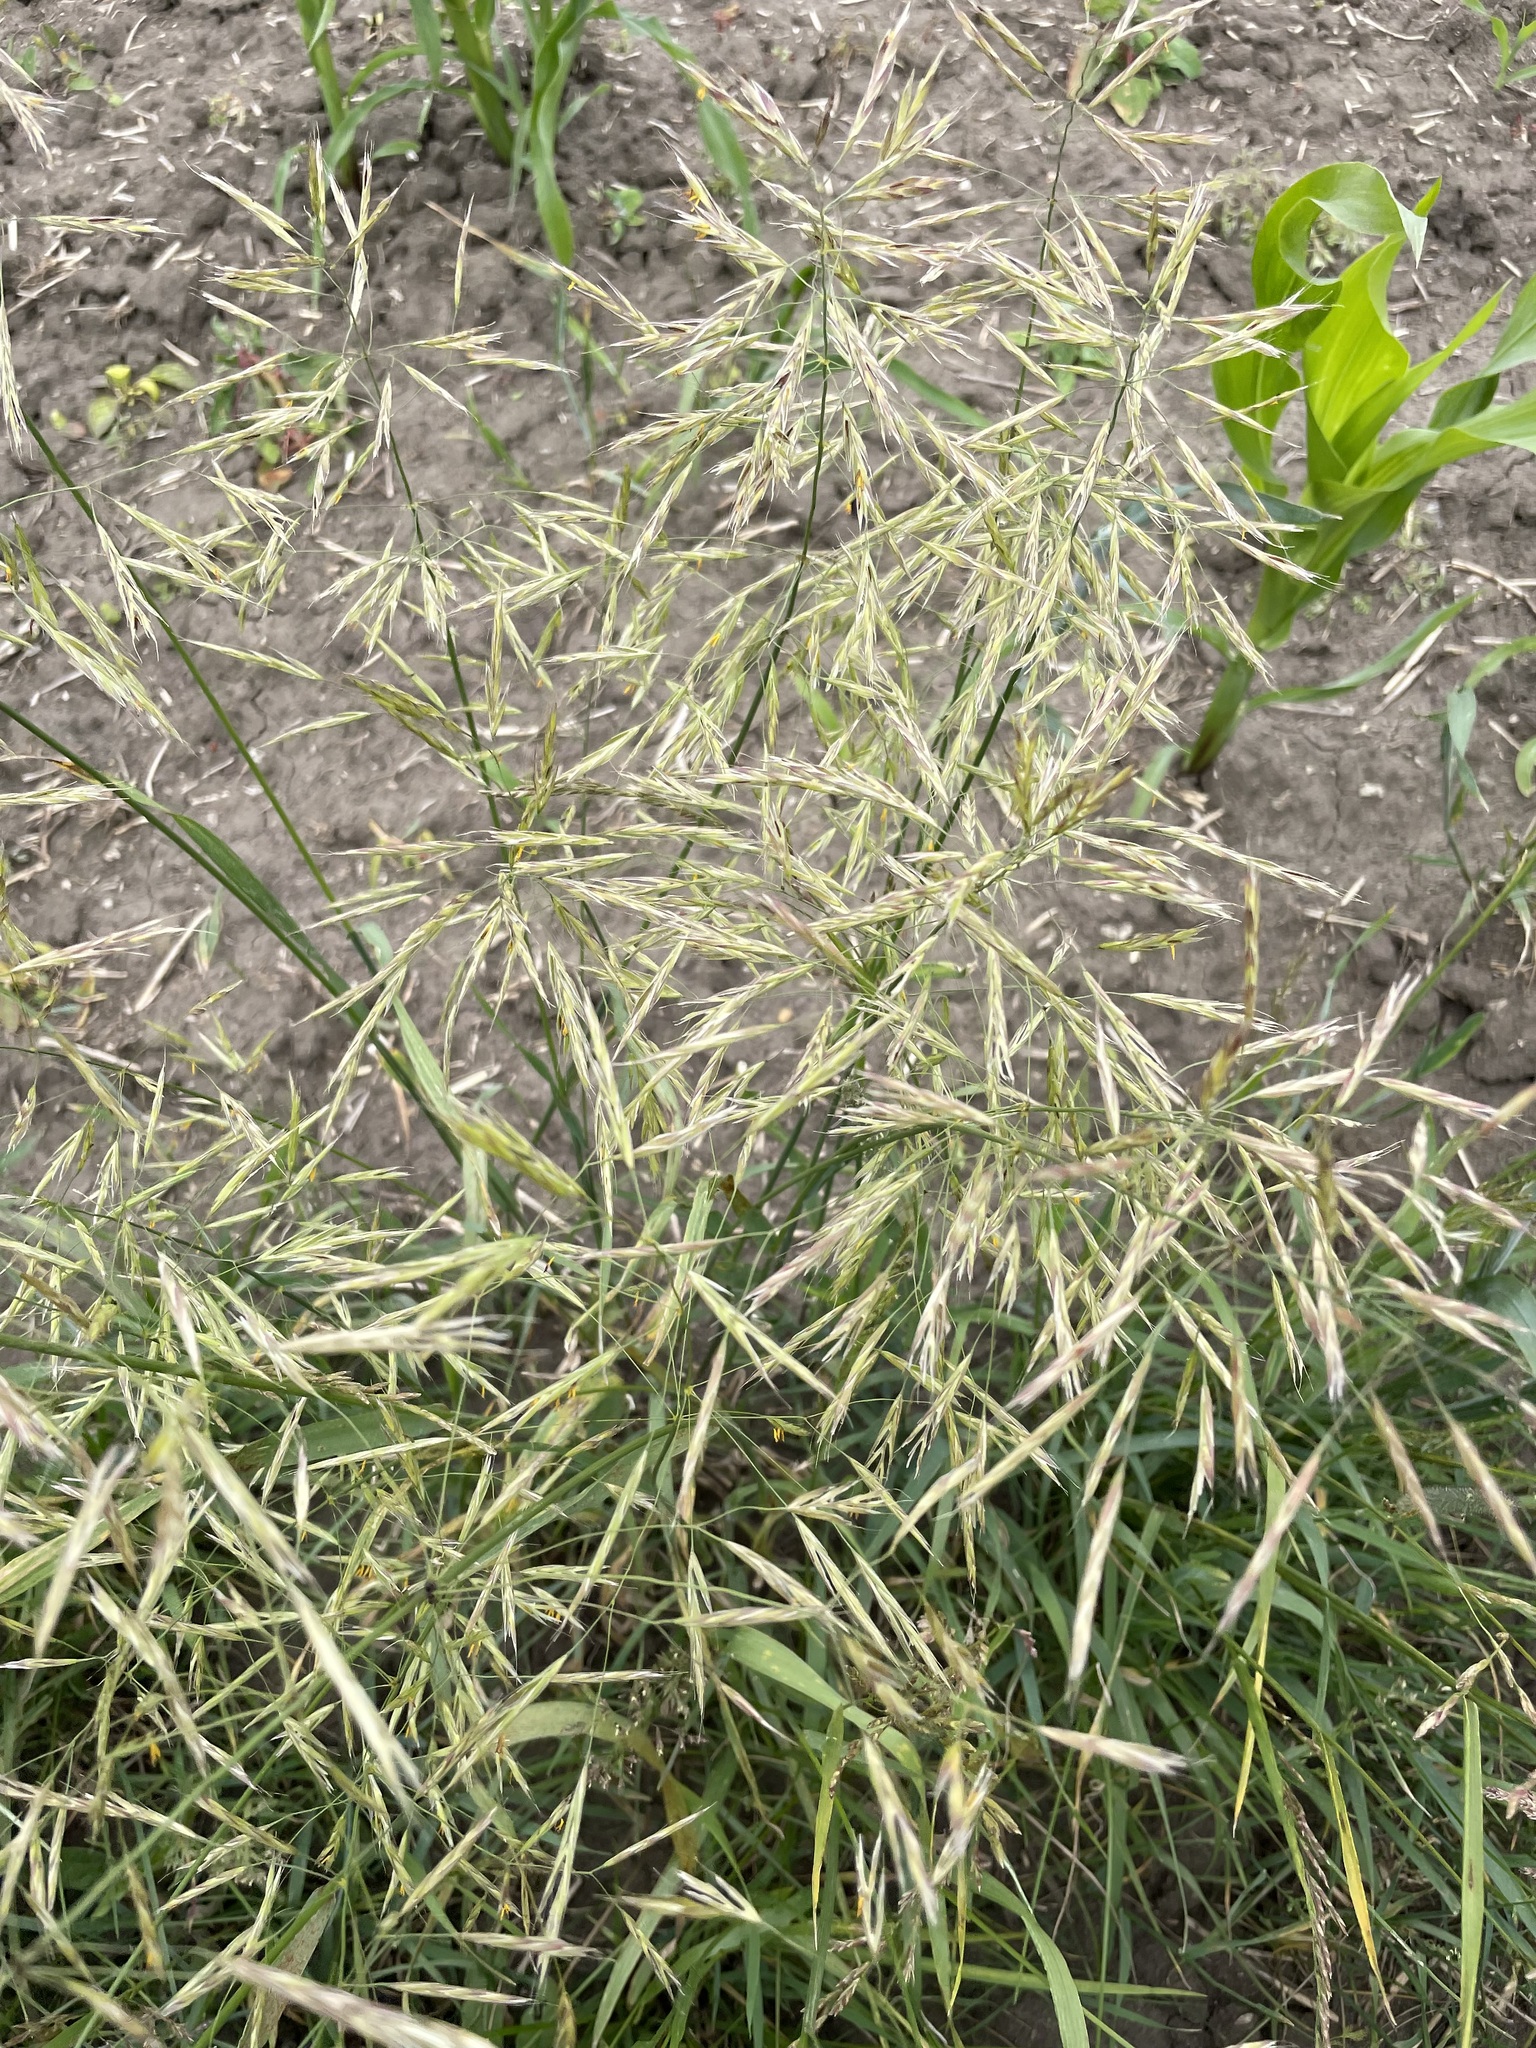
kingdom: Plantae
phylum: Tracheophyta
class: Liliopsida
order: Poales
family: Poaceae
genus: Bromus
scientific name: Bromus inermis
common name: Smooth brome
